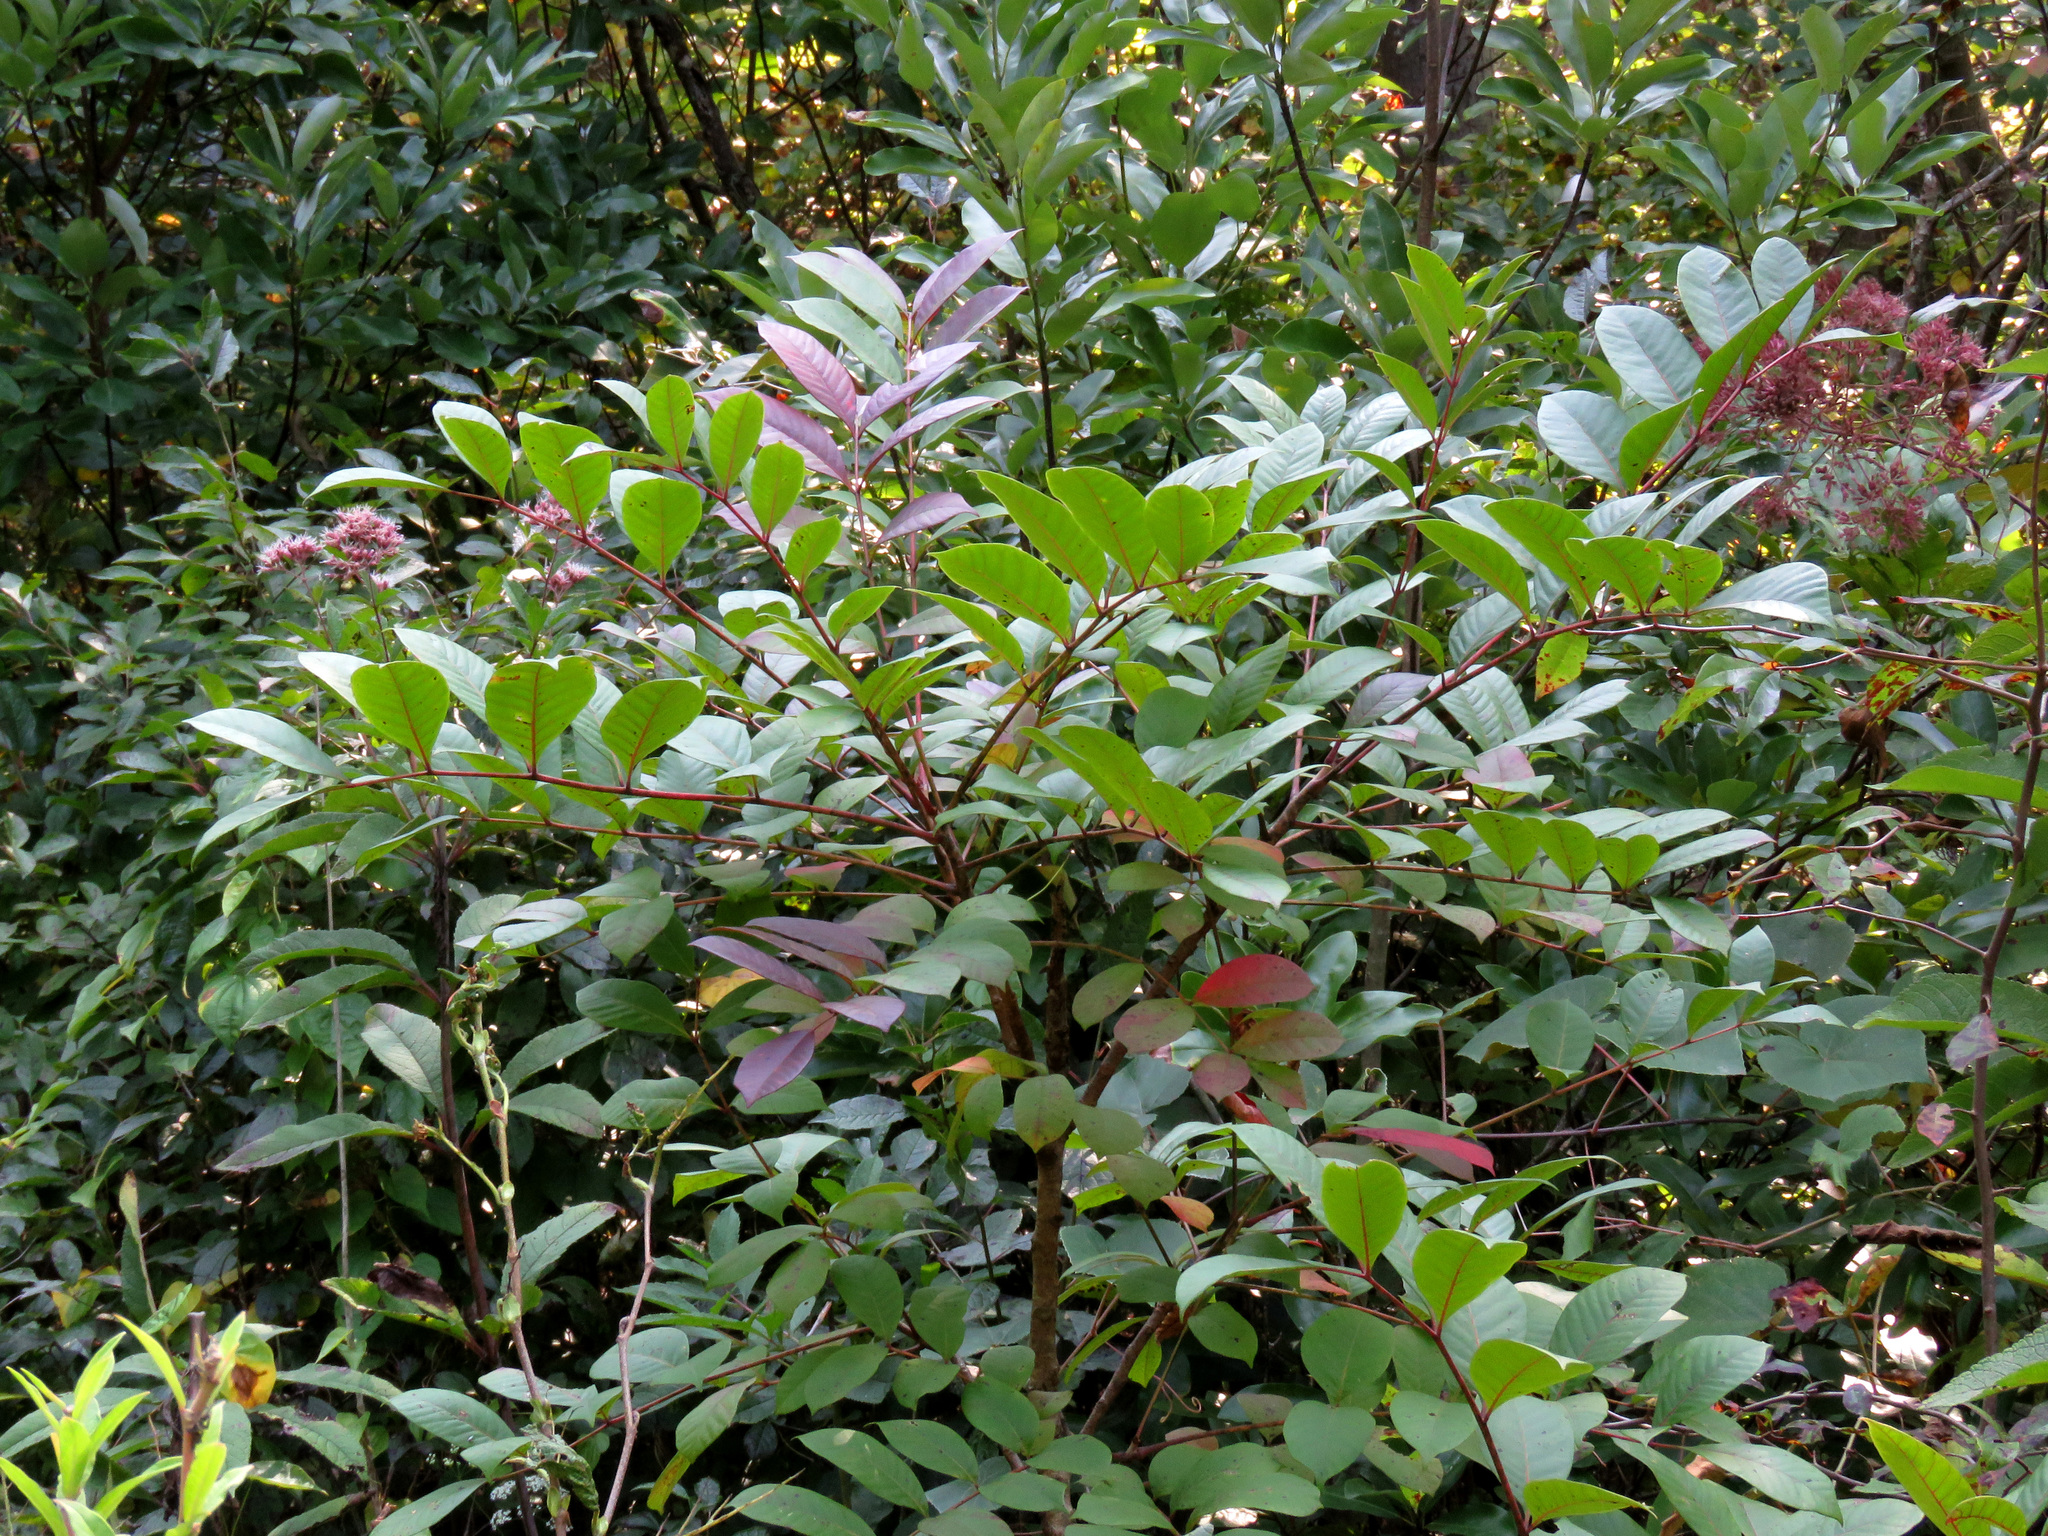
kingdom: Plantae
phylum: Tracheophyta
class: Magnoliopsida
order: Sapindales
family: Anacardiaceae
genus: Toxicodendron
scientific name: Toxicodendron vernix
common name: Poison sumac
